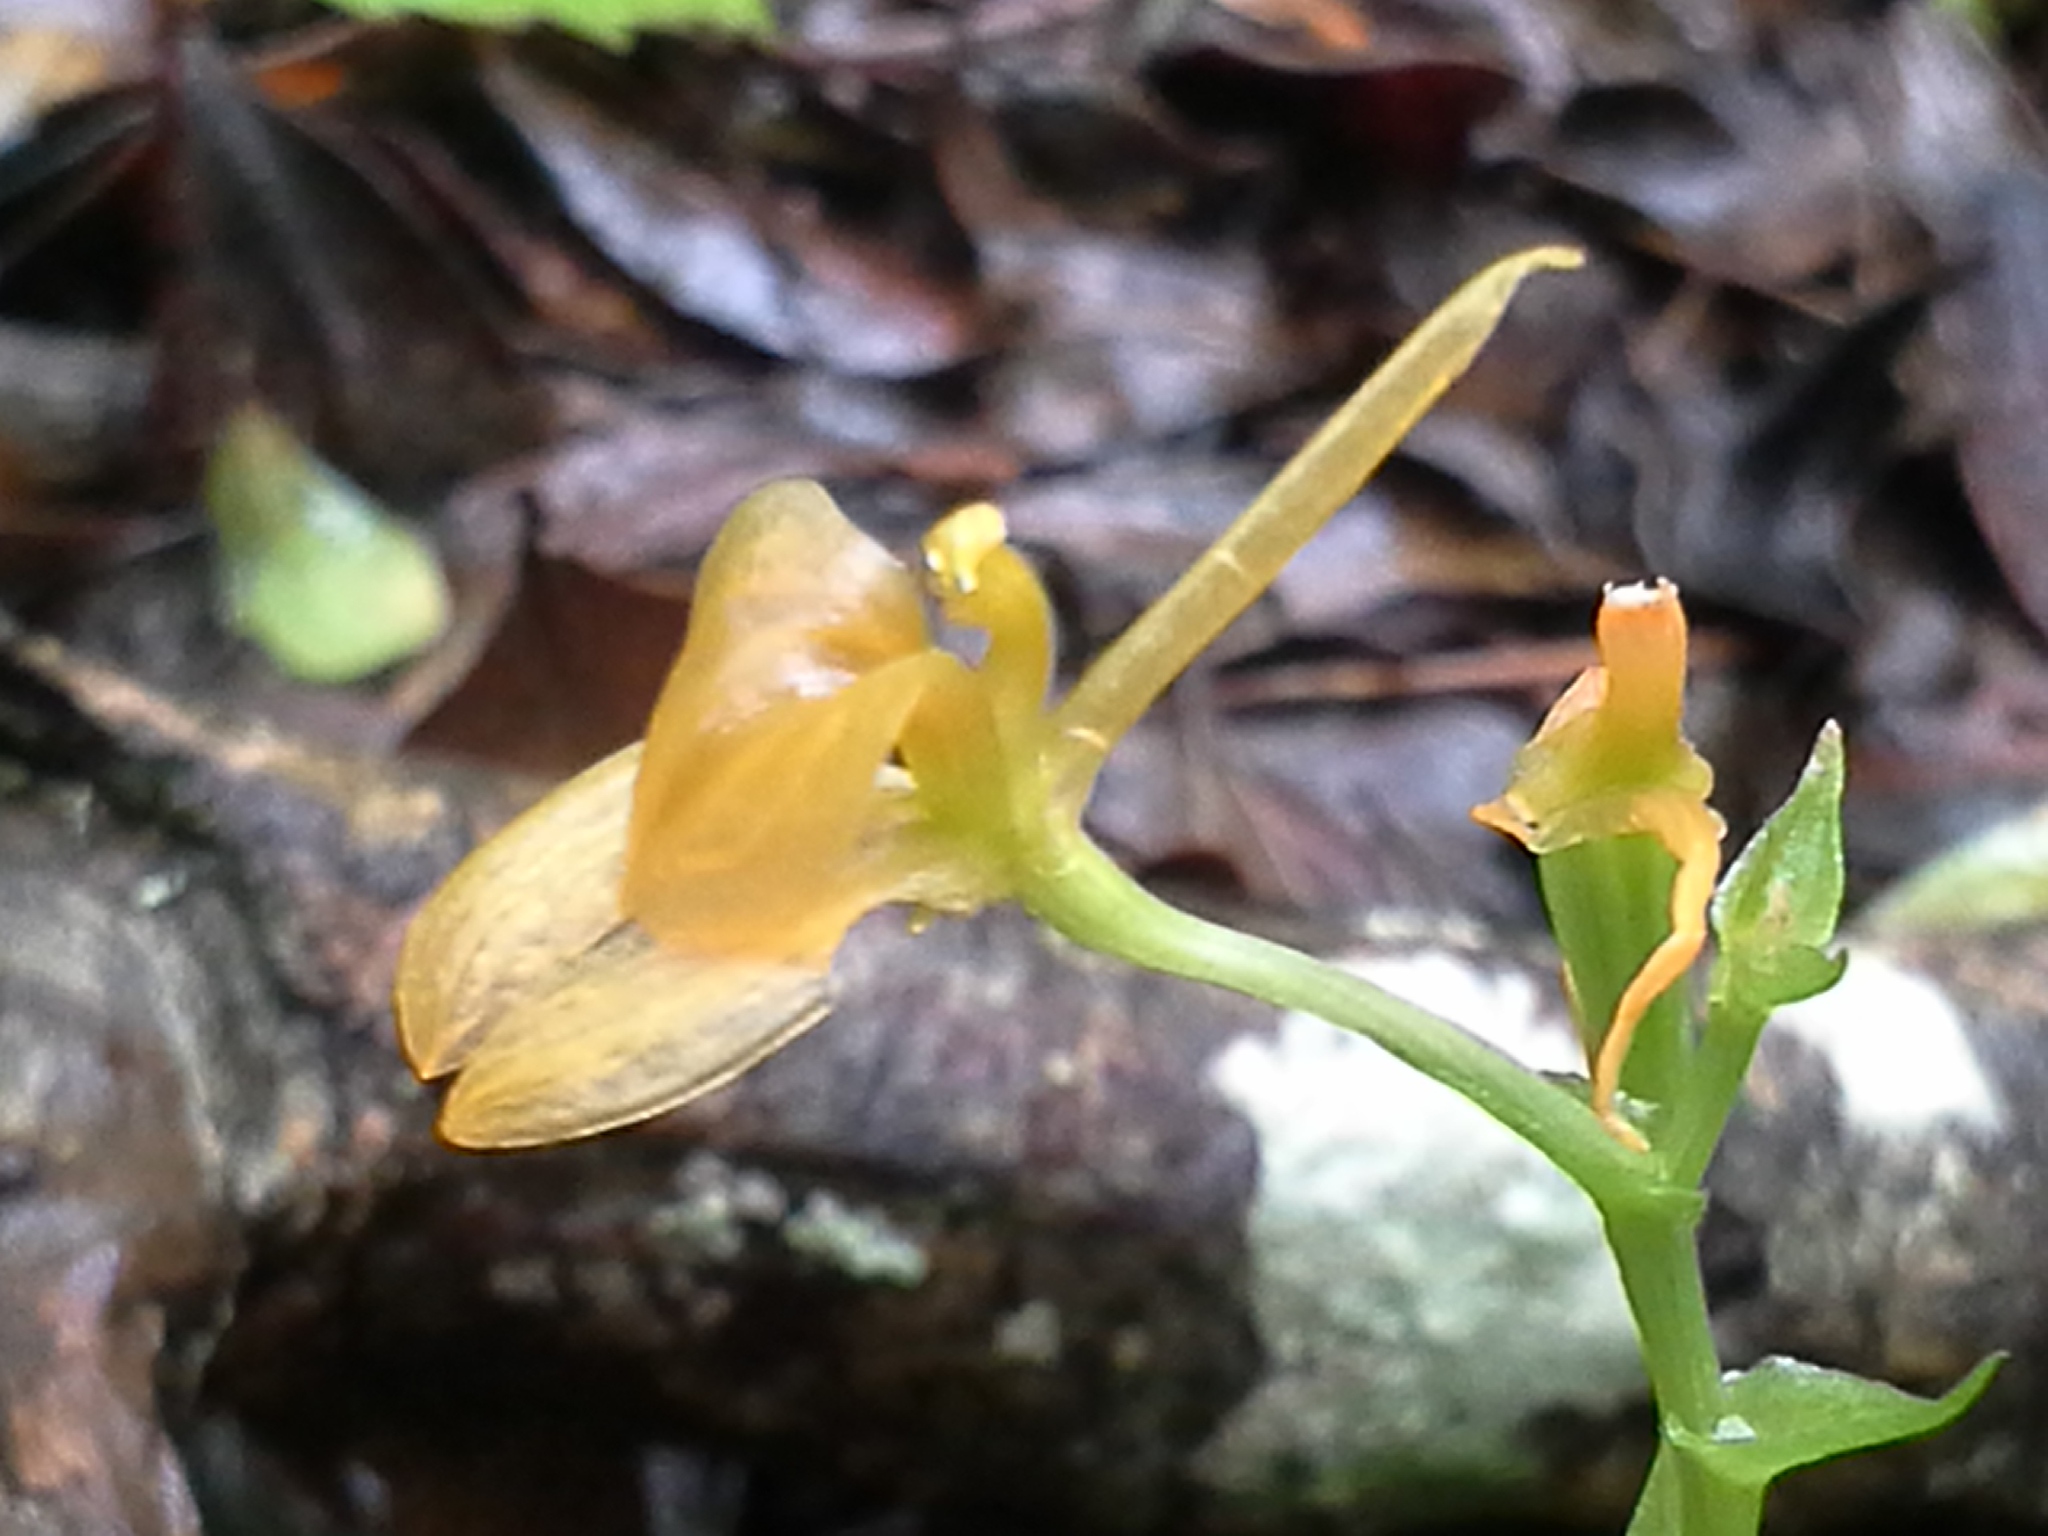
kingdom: Plantae
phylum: Tracheophyta
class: Liliopsida
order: Asparagales
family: Orchidaceae
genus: Liparis
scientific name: Liparis bowkeri
